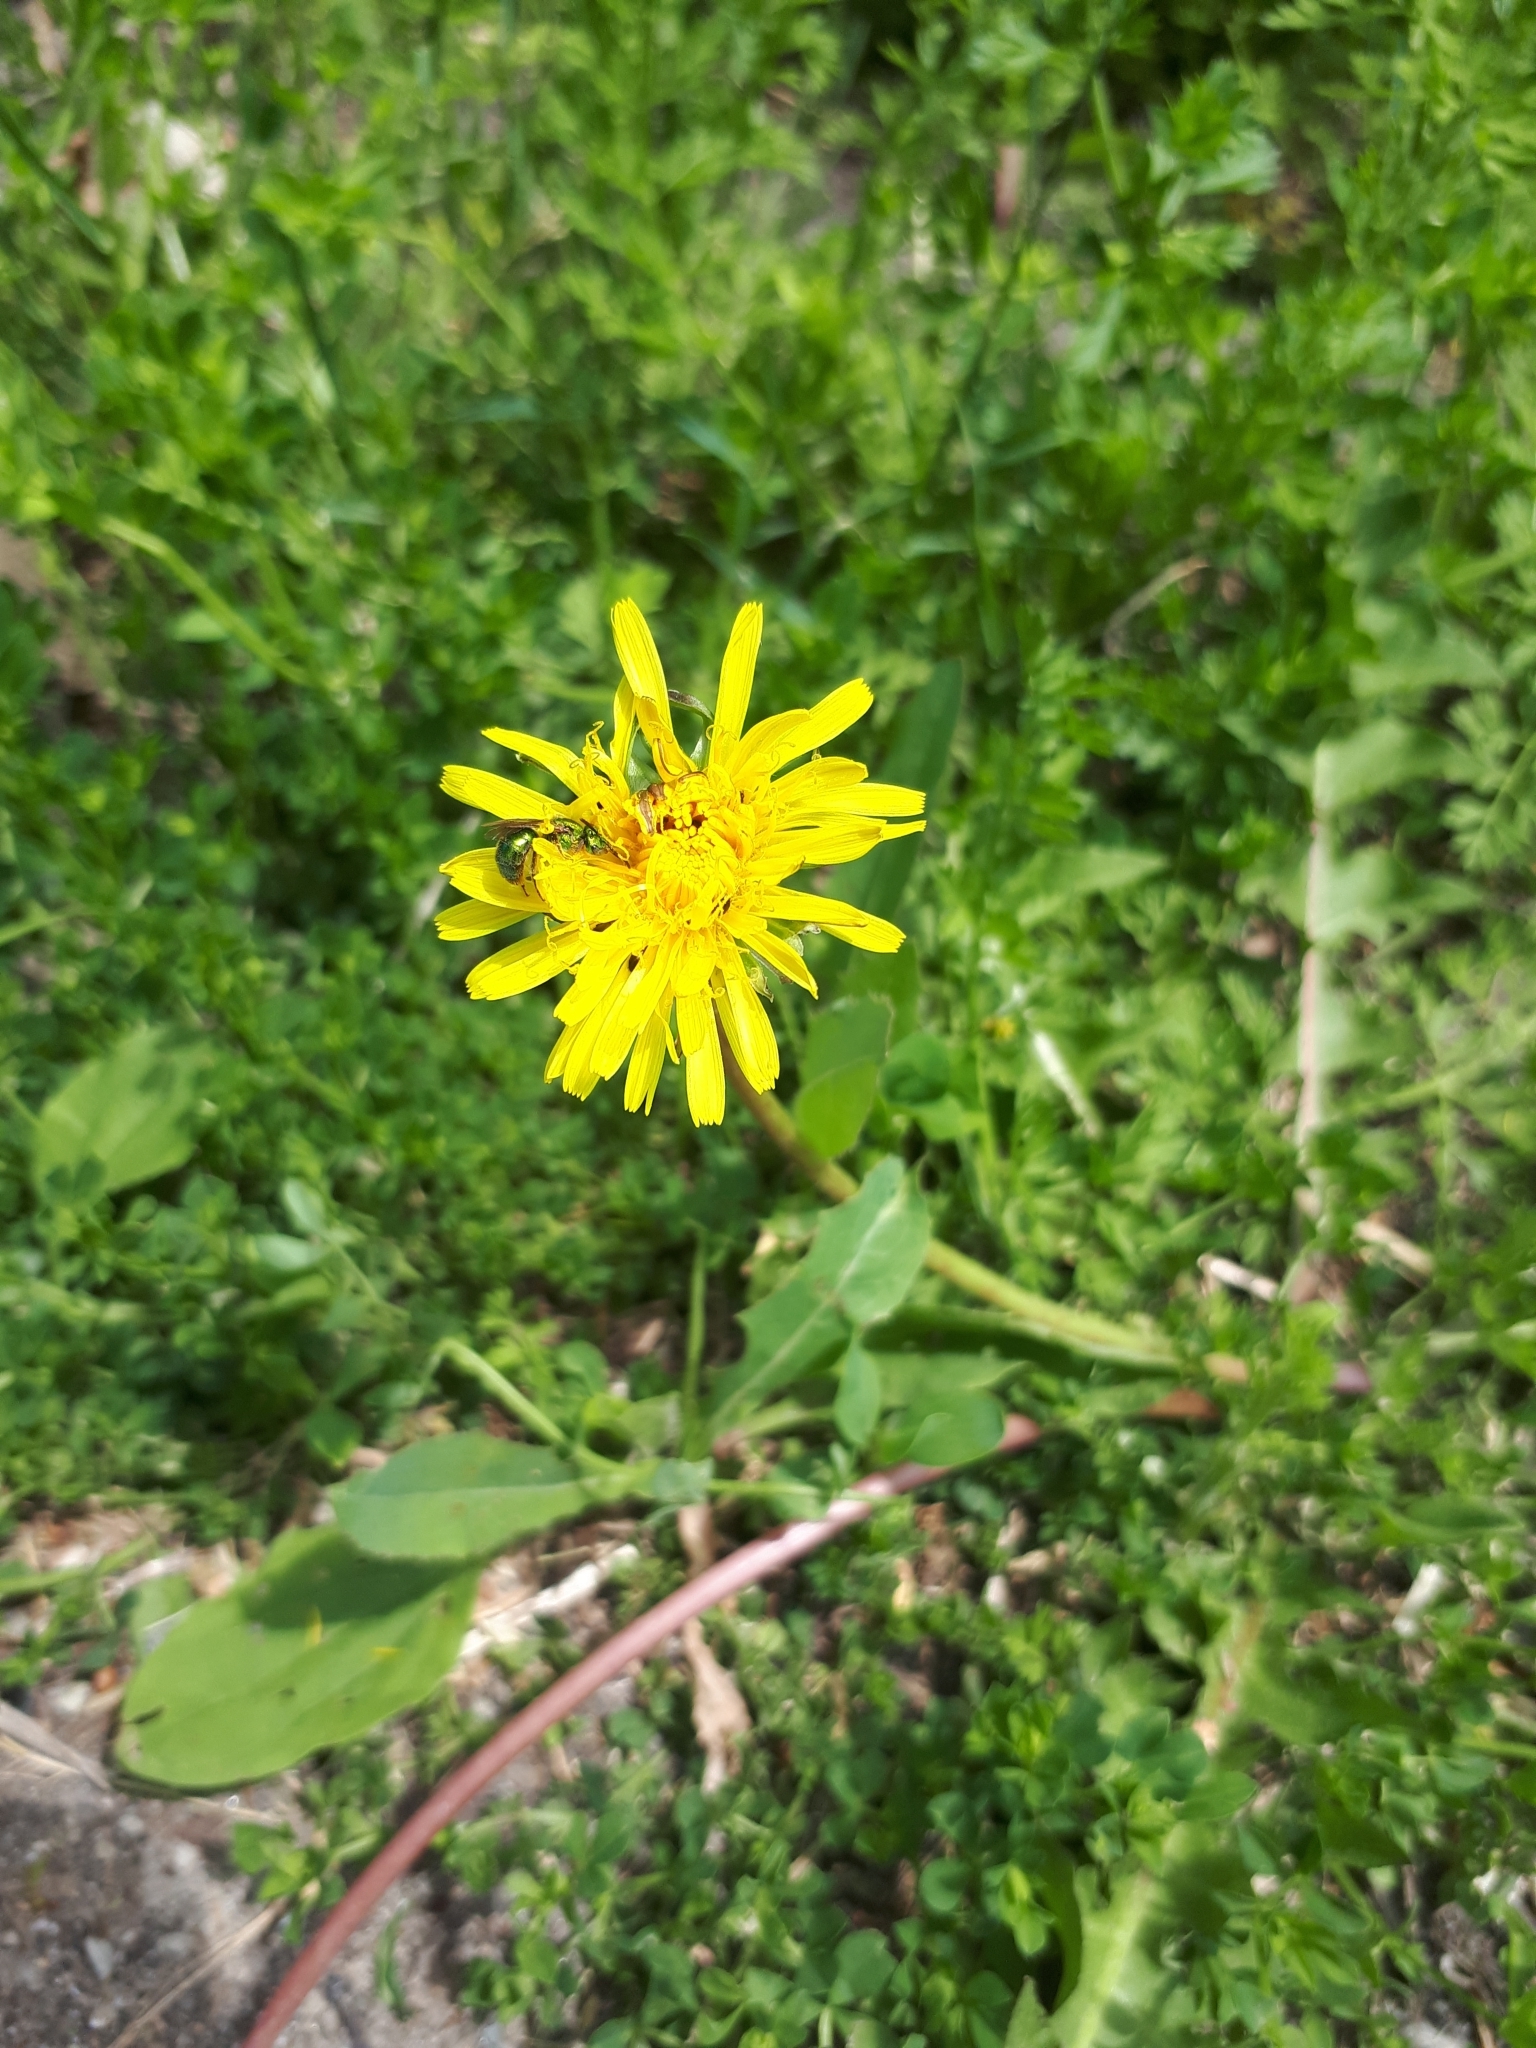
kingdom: Plantae
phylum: Tracheophyta
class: Magnoliopsida
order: Asterales
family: Asteraceae
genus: Taraxacum
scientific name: Taraxacum officinale
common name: Common dandelion
